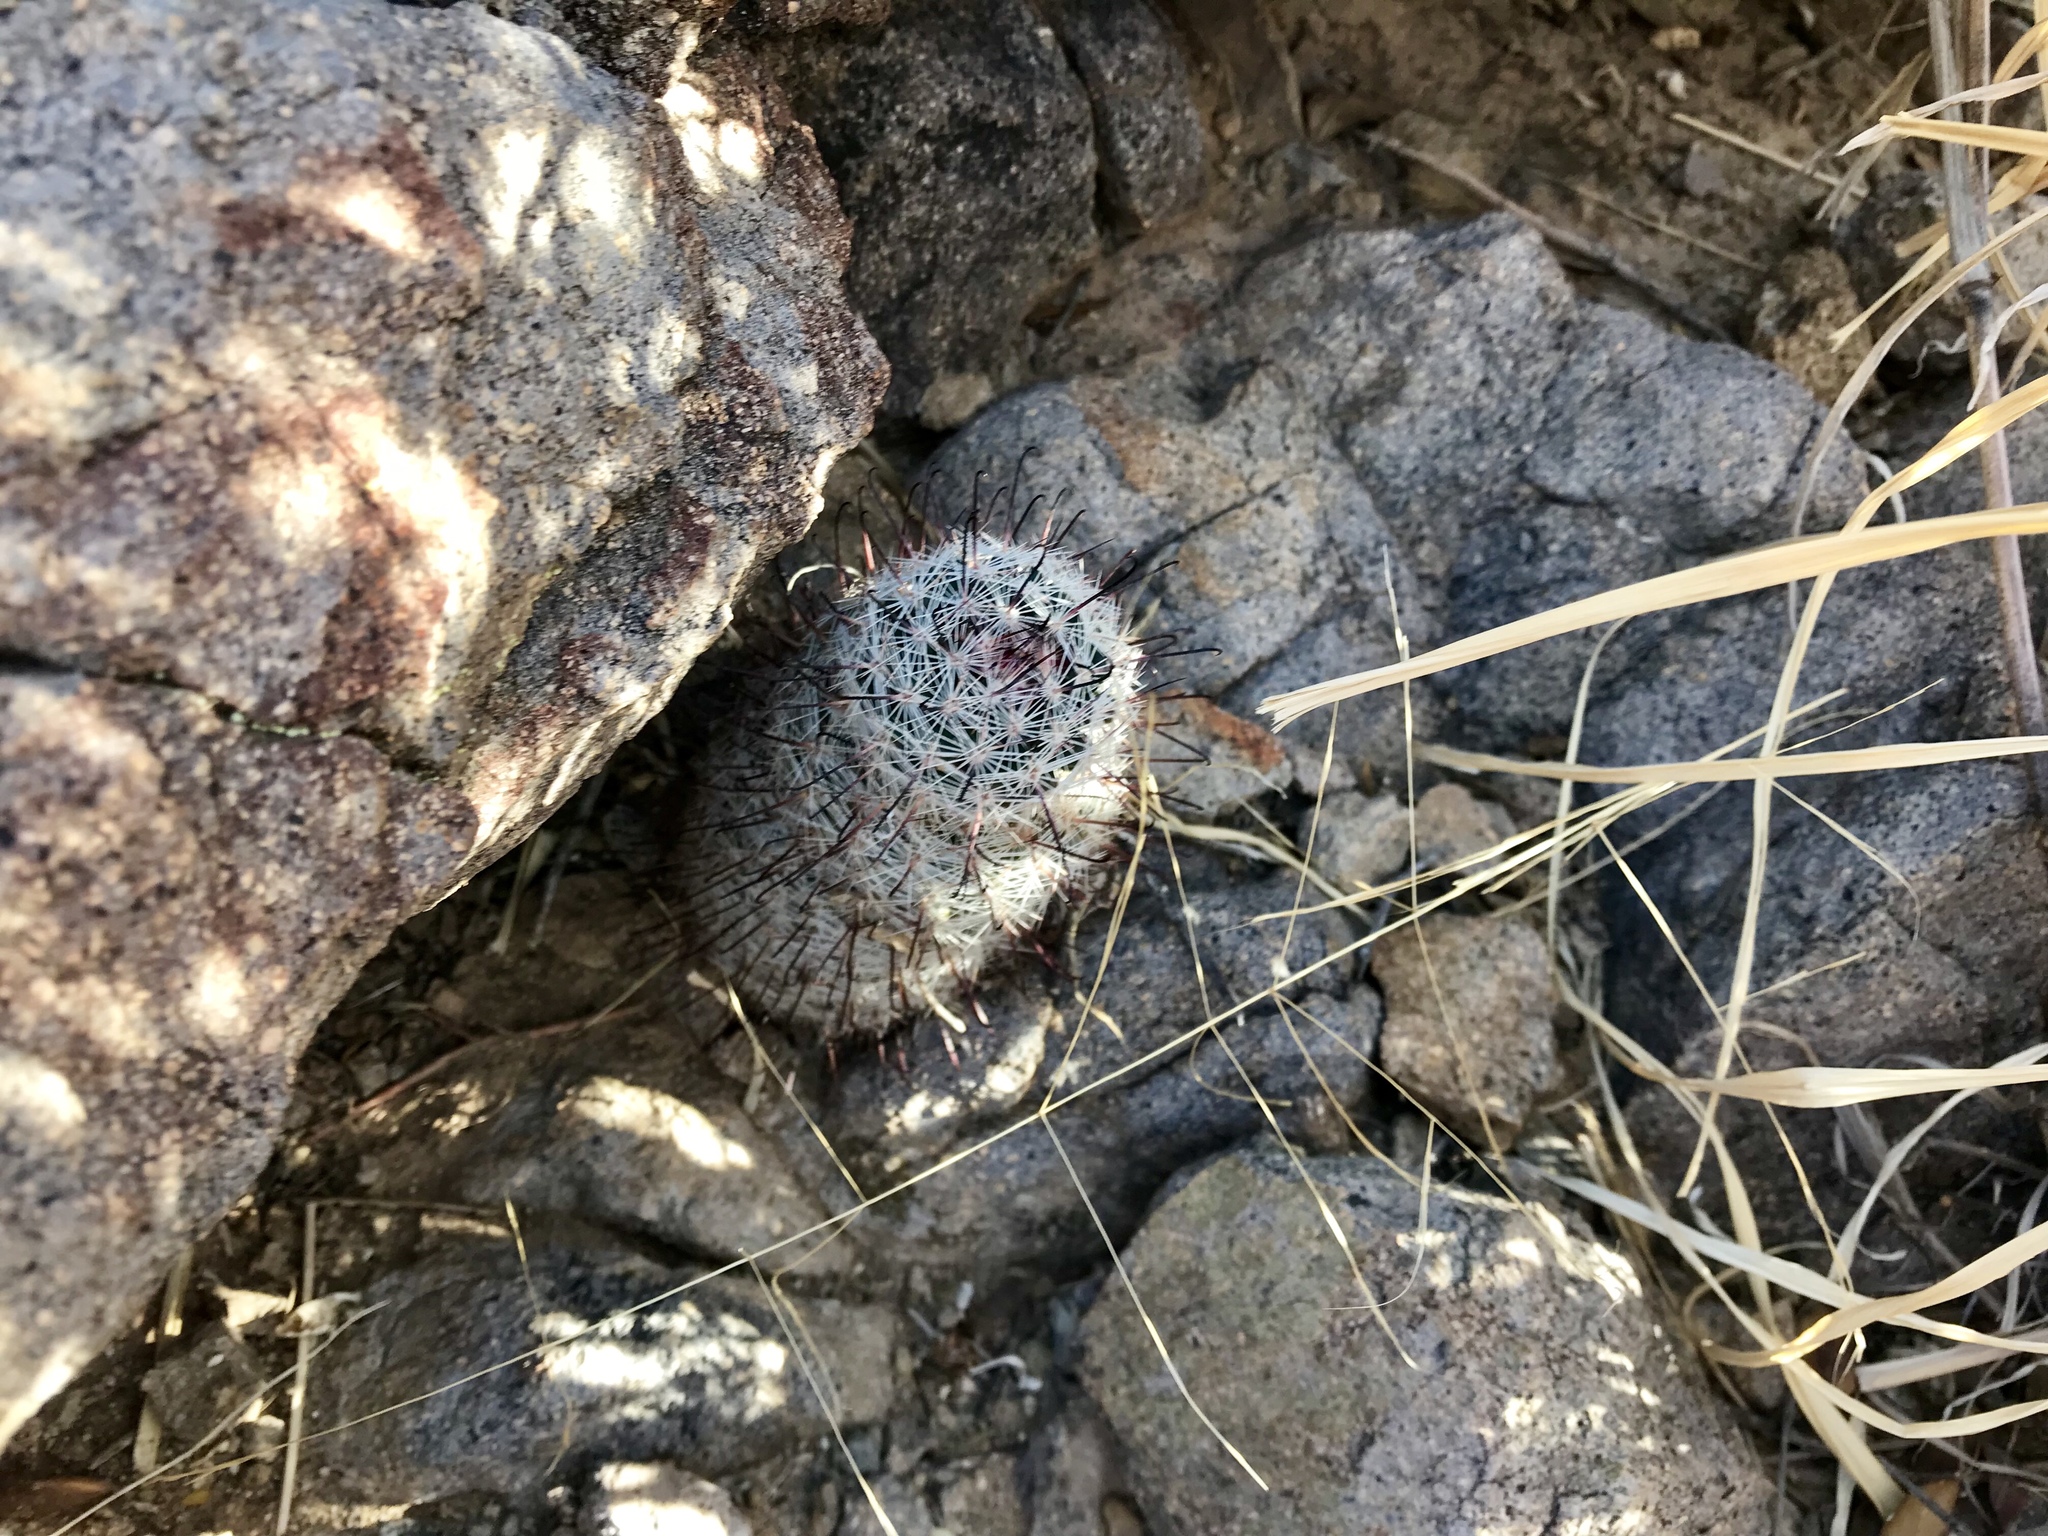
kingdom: Plantae
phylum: Tracheophyta
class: Magnoliopsida
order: Caryophyllales
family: Cactaceae
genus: Cochemiea
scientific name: Cochemiea grahamii
